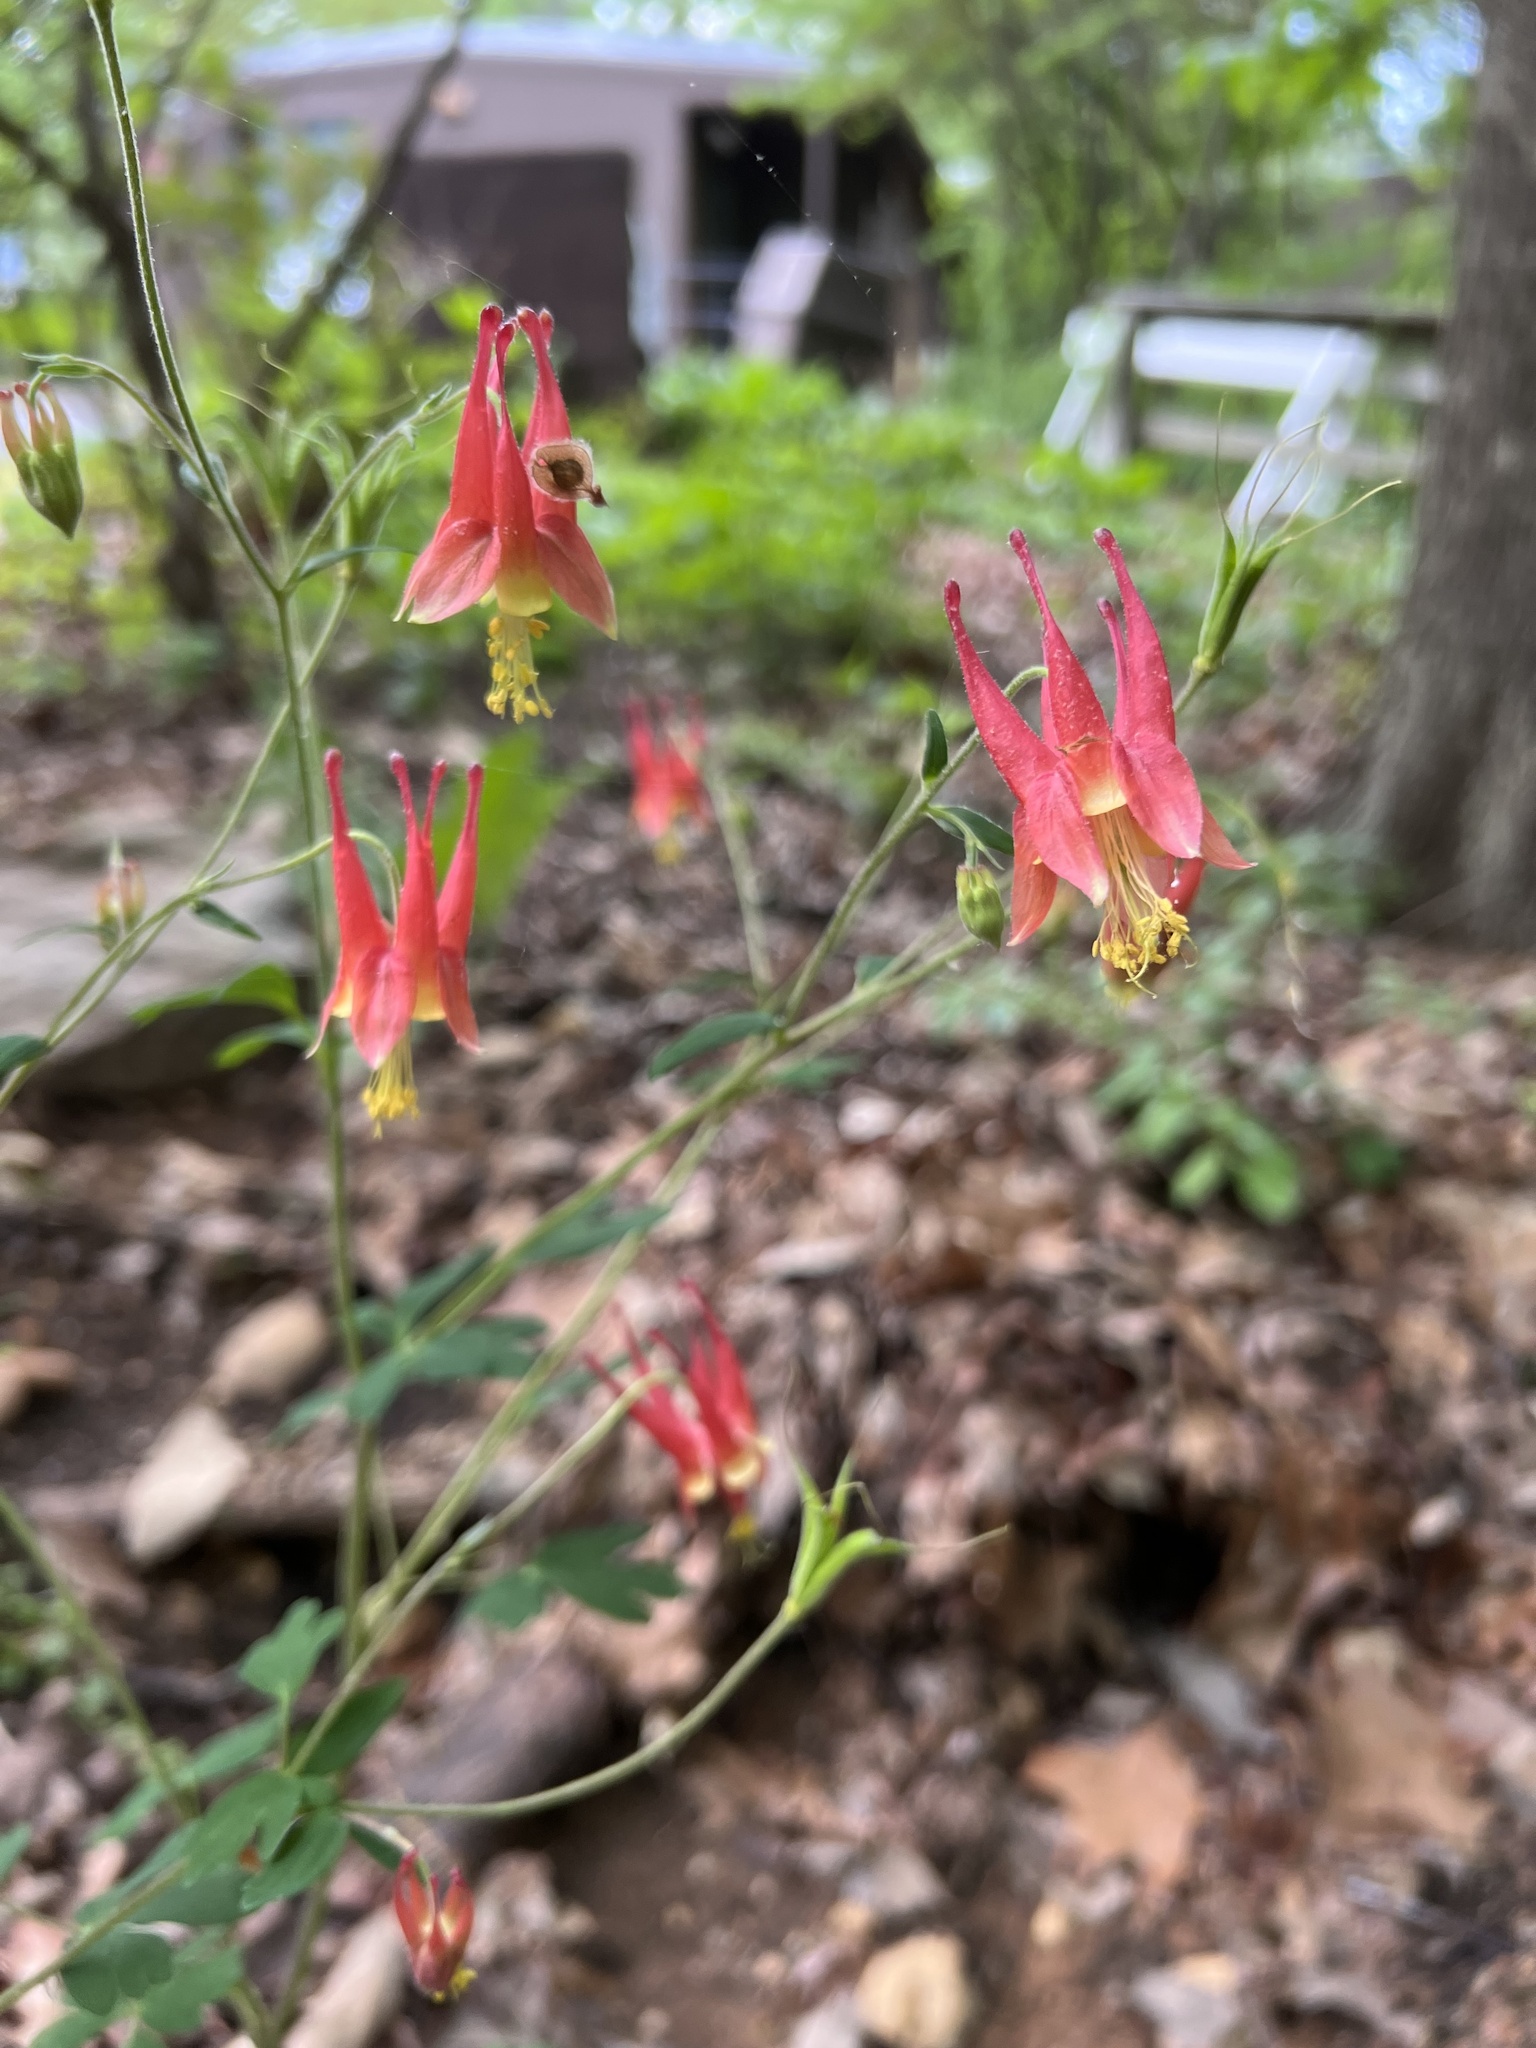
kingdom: Plantae
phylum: Tracheophyta
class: Magnoliopsida
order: Ranunculales
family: Ranunculaceae
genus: Aquilegia
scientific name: Aquilegia canadensis
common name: American columbine
